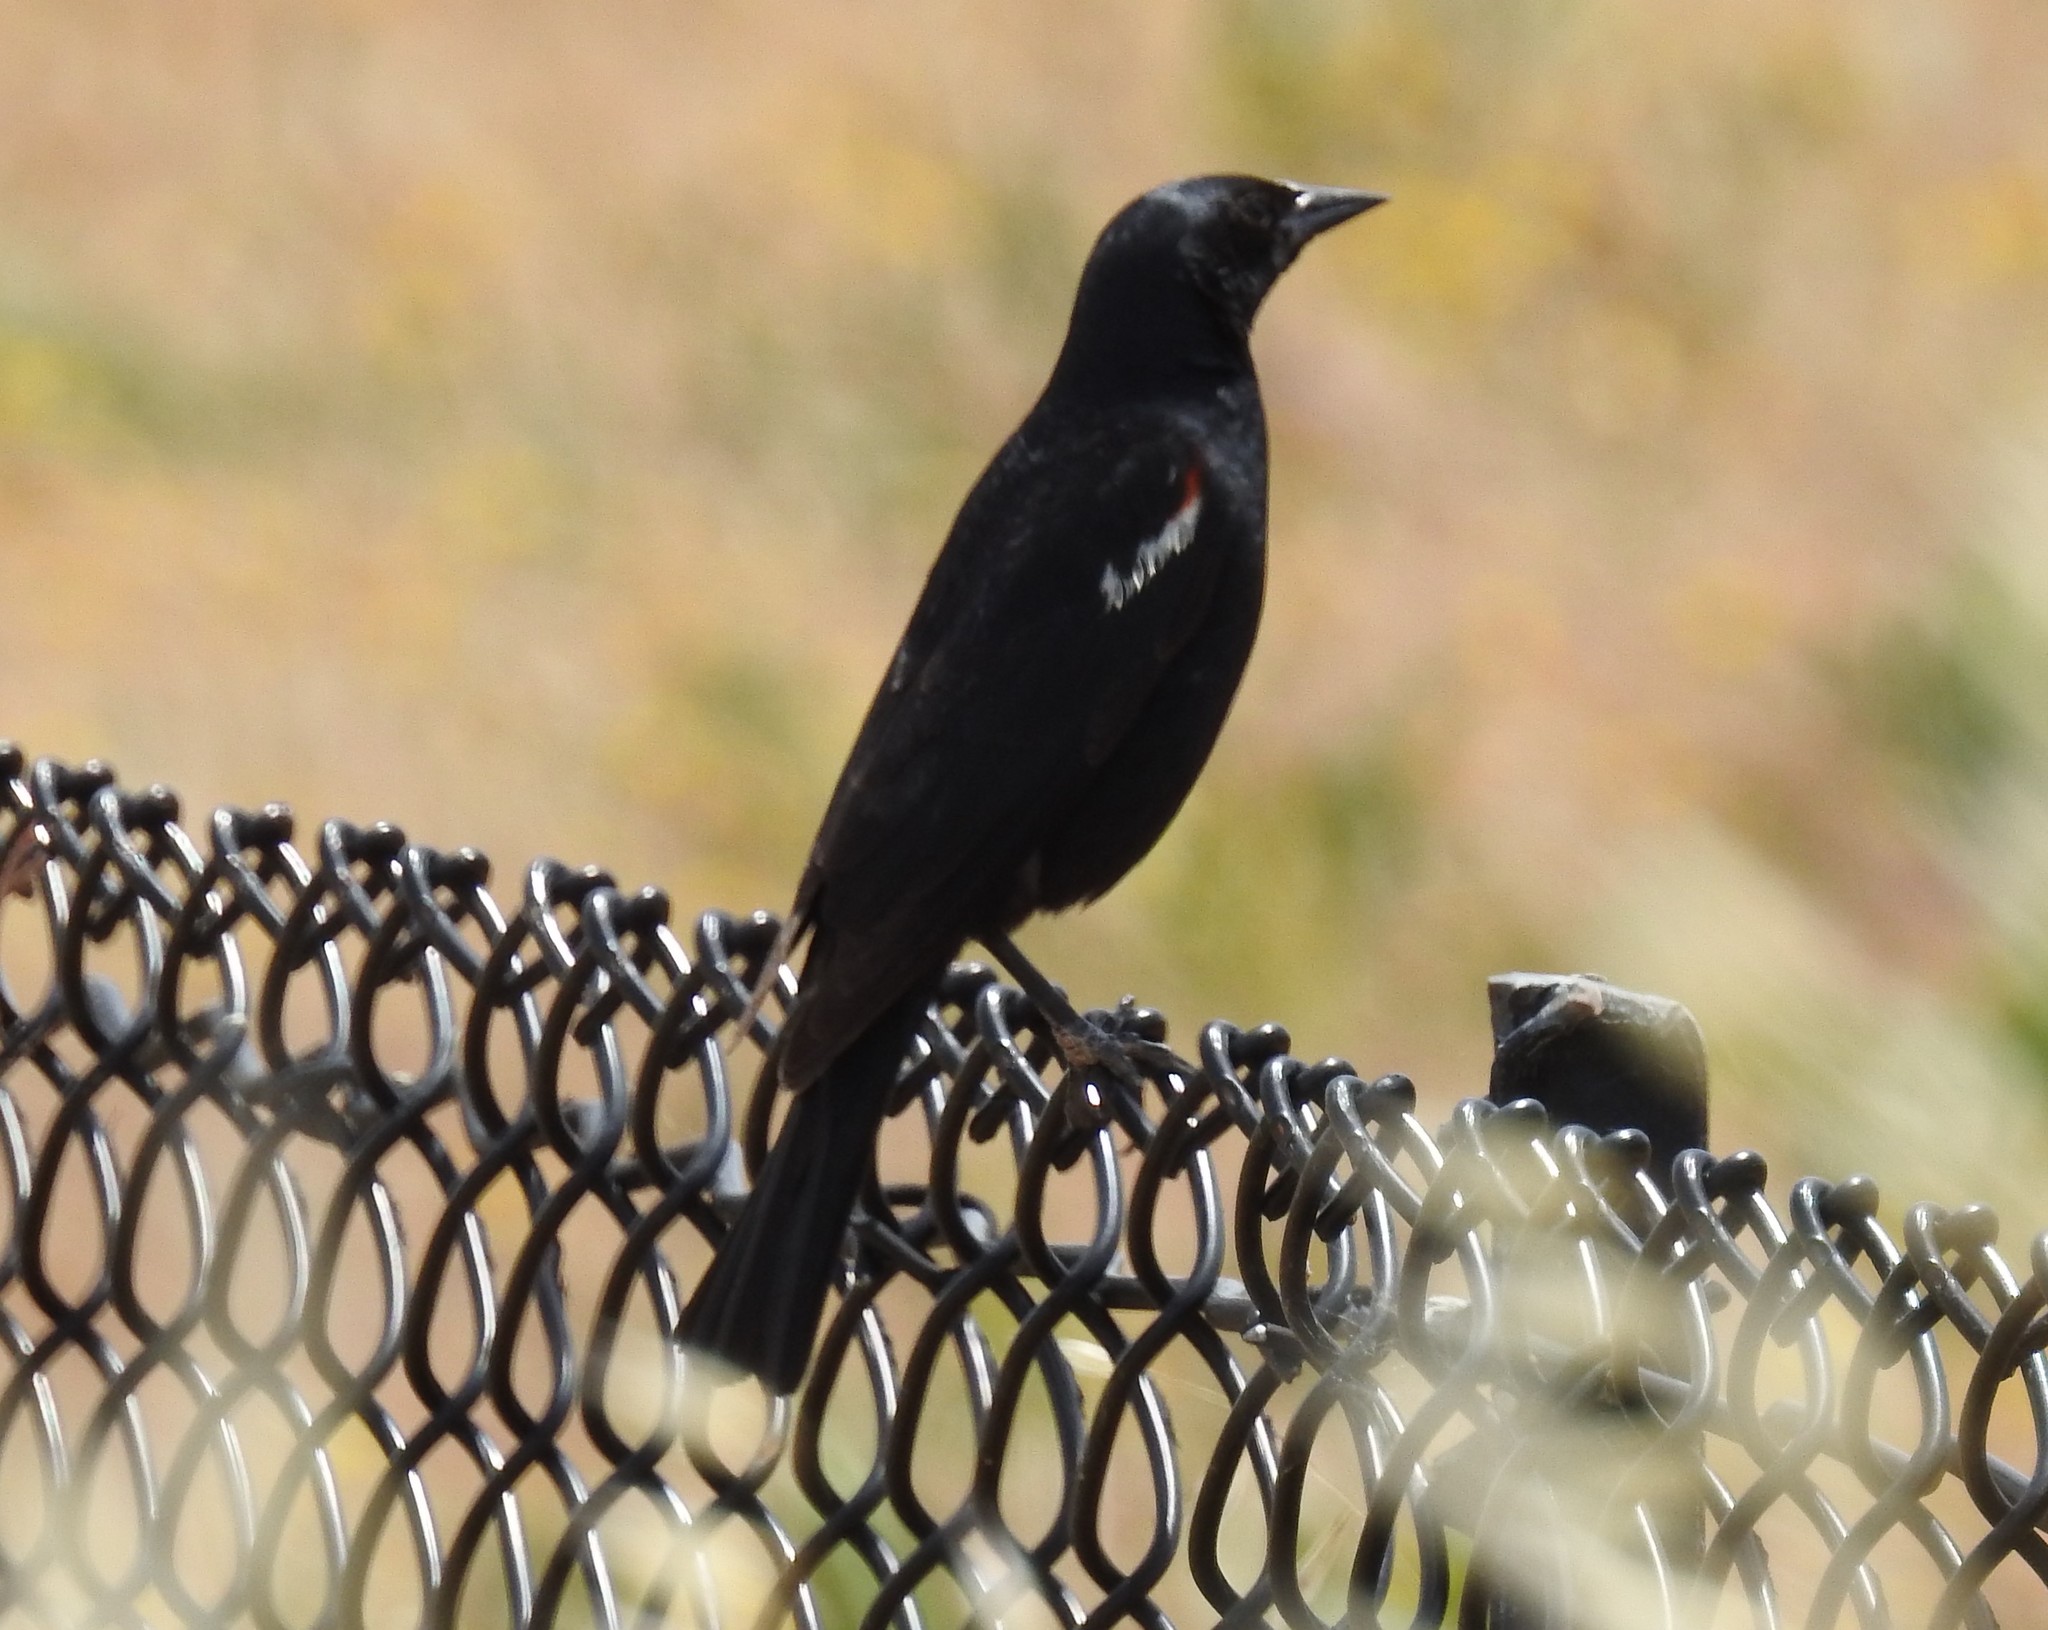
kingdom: Animalia
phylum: Chordata
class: Aves
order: Passeriformes
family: Icteridae
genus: Agelaius
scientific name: Agelaius tricolor
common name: Tricolored blackbird
